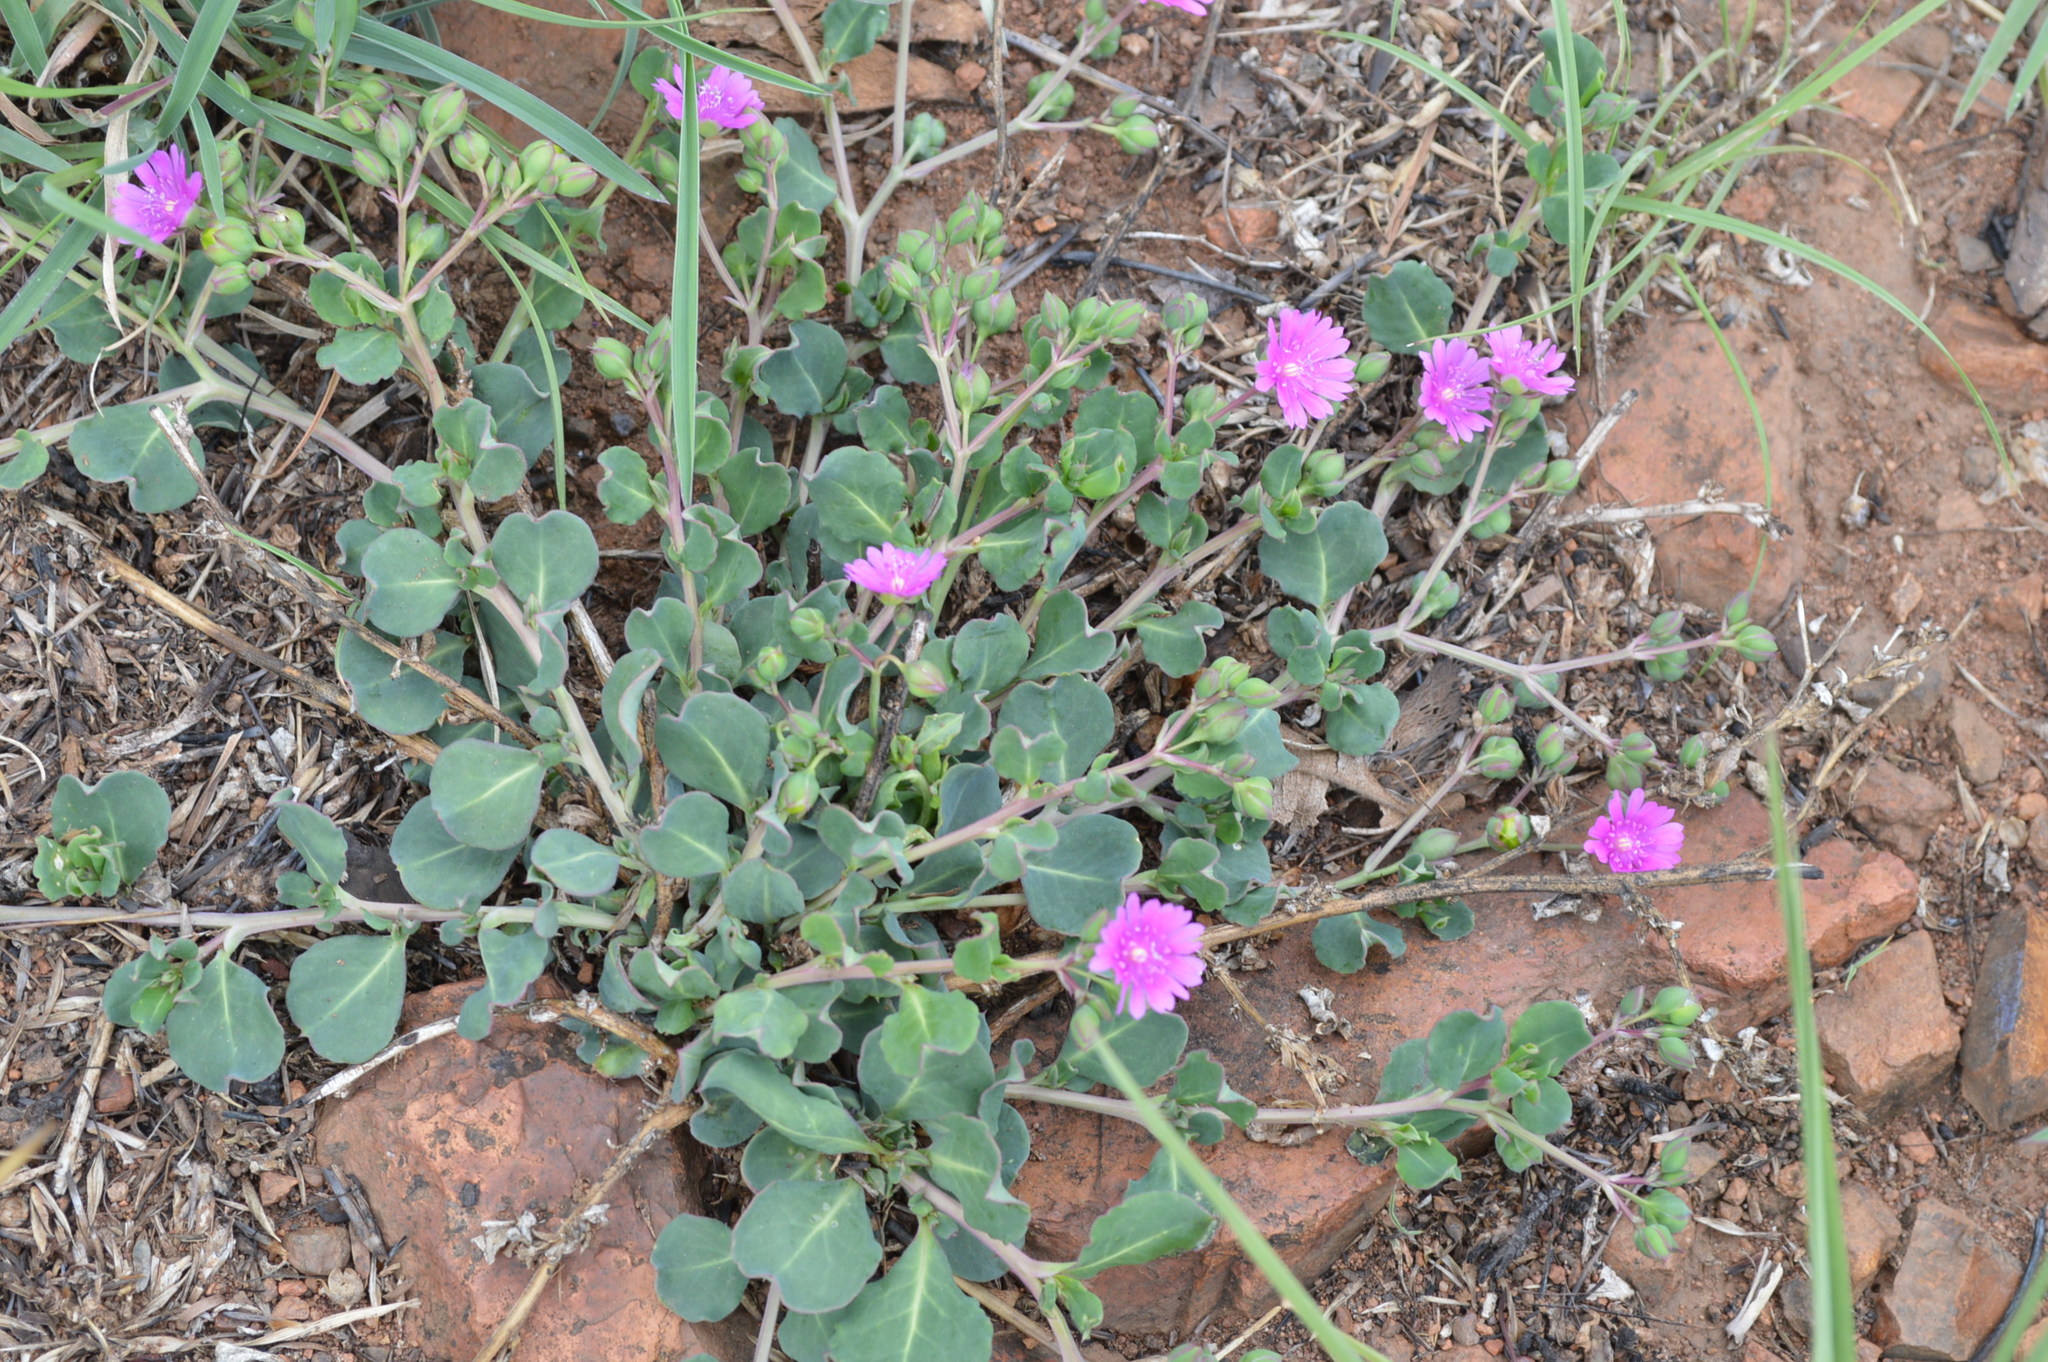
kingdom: Plantae
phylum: Tracheophyta
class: Magnoliopsida
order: Caryophyllales
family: Corbichoniaceae
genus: Corbichonia
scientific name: Corbichonia decumbens
